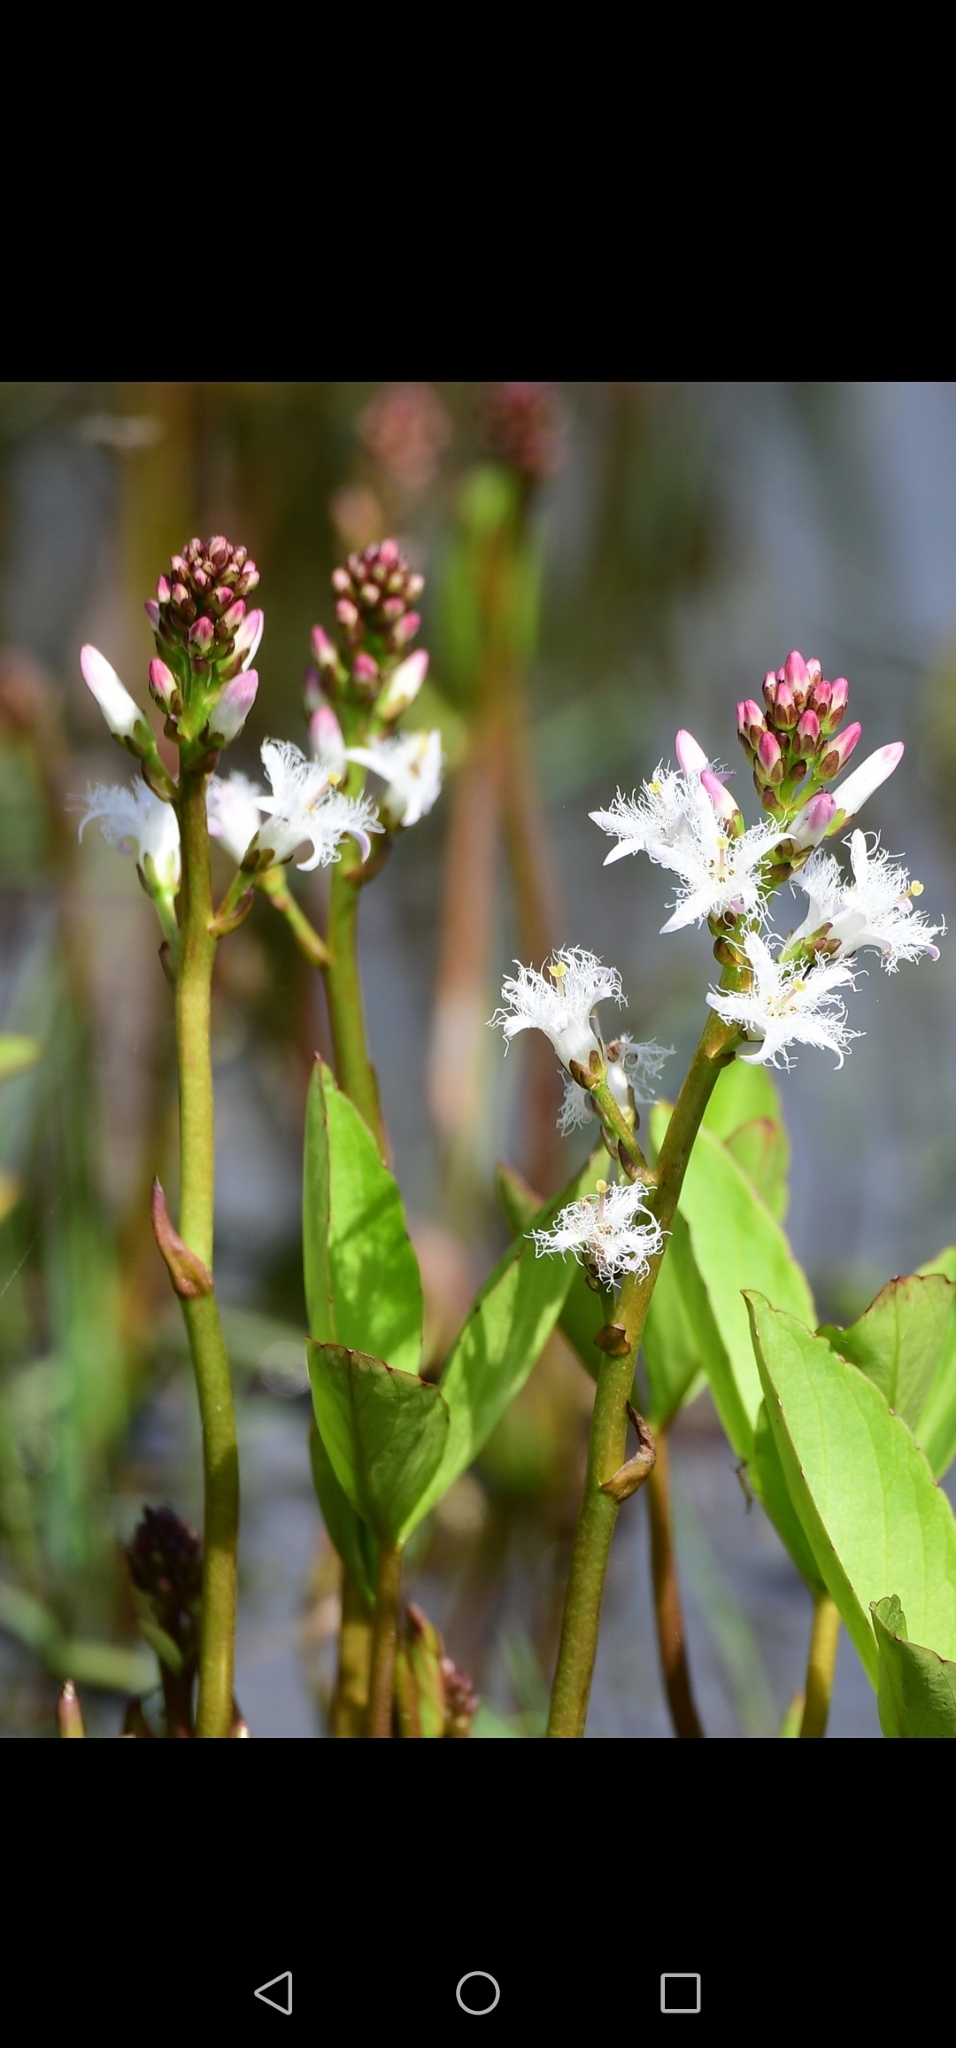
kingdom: Plantae
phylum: Tracheophyta
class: Magnoliopsida
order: Asterales
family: Menyanthaceae
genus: Menyanthes
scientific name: Menyanthes trifoliata
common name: Bogbean
